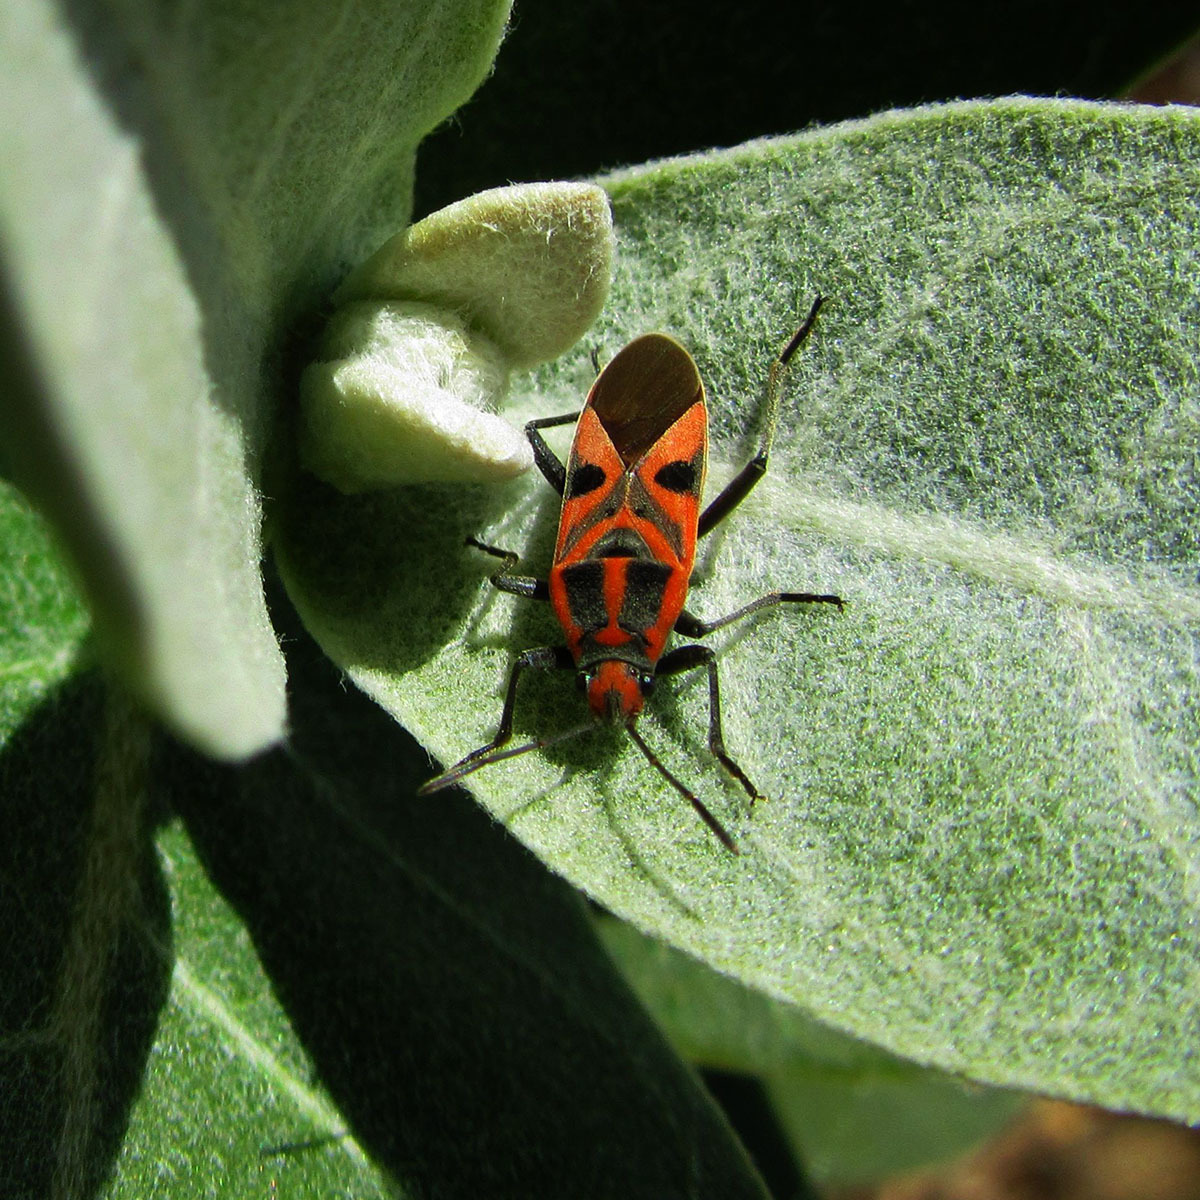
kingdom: Animalia
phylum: Arthropoda
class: Insecta
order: Hemiptera
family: Lygaeidae
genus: Spilostethus
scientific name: Spilostethus hospes
